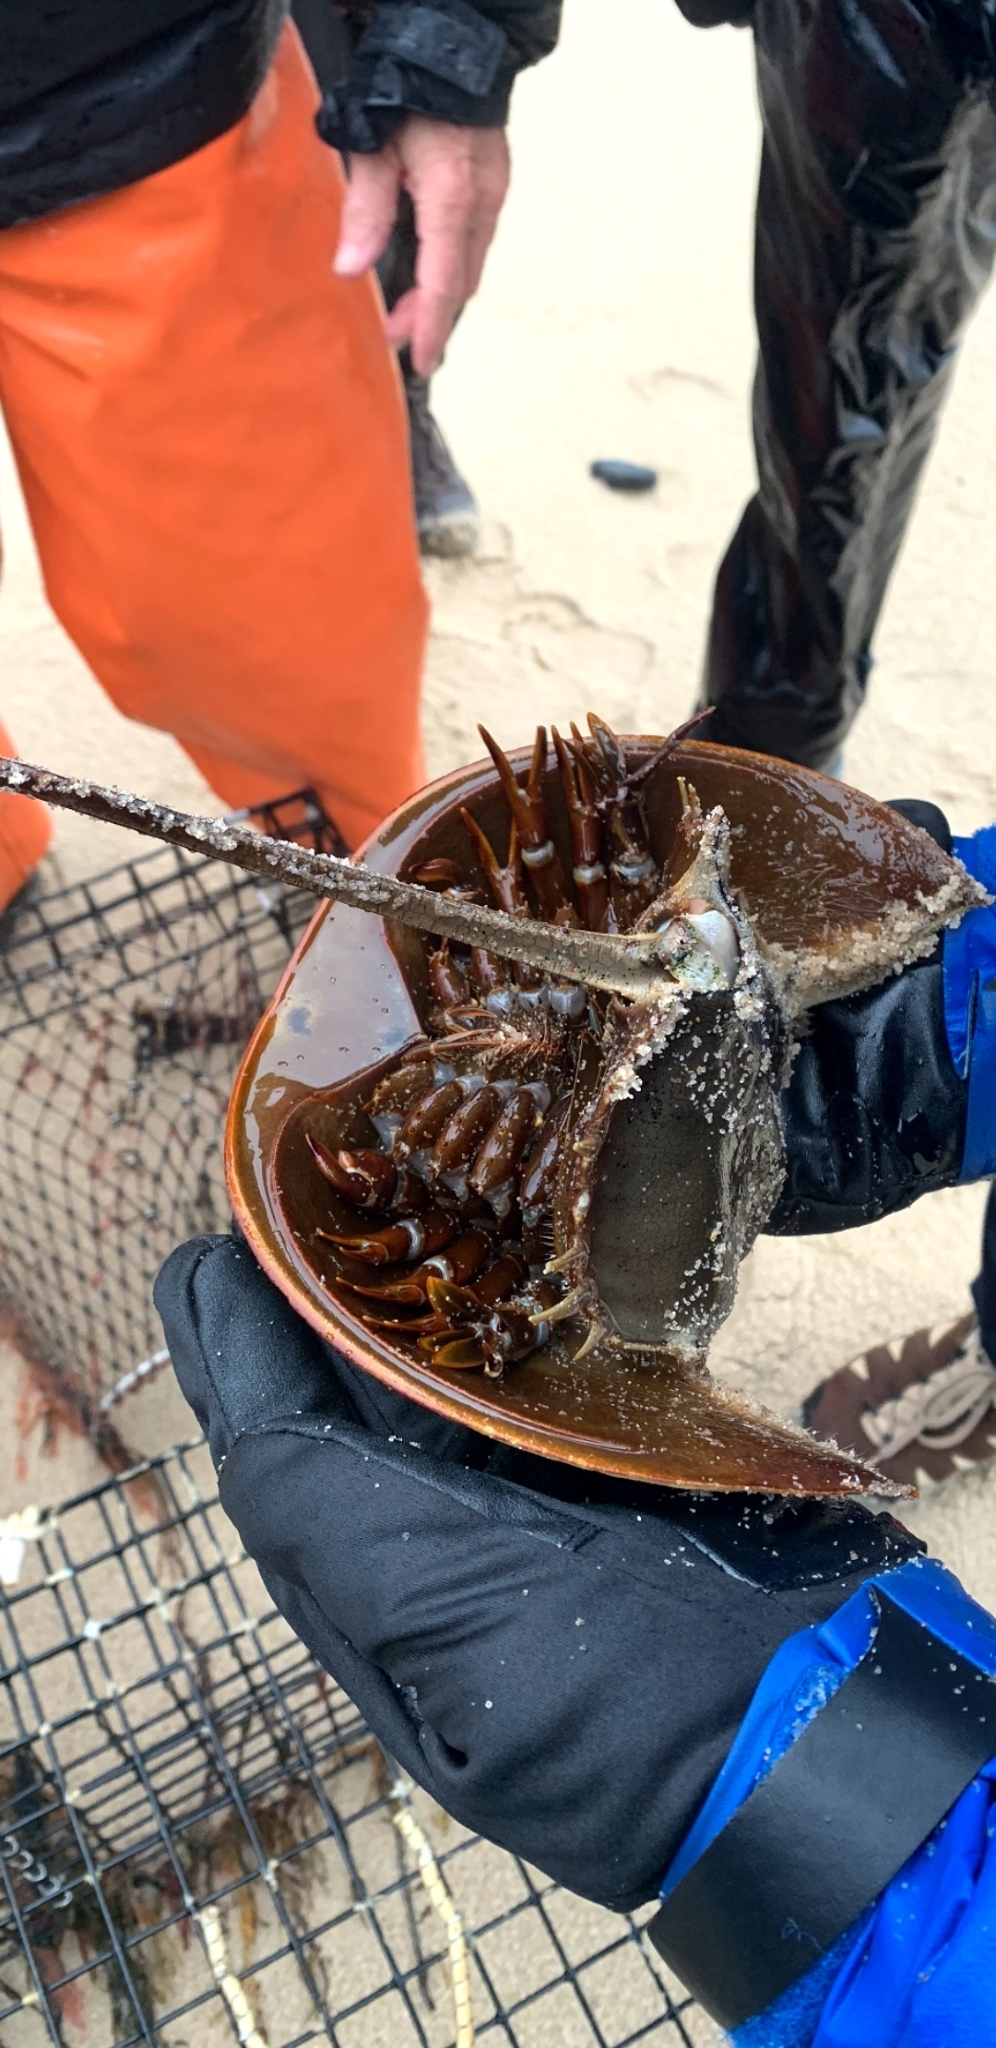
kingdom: Animalia
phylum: Arthropoda
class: Merostomata
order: Xiphosurida
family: Limulidae
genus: Limulus
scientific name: Limulus polyphemus
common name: Horseshoe crab
